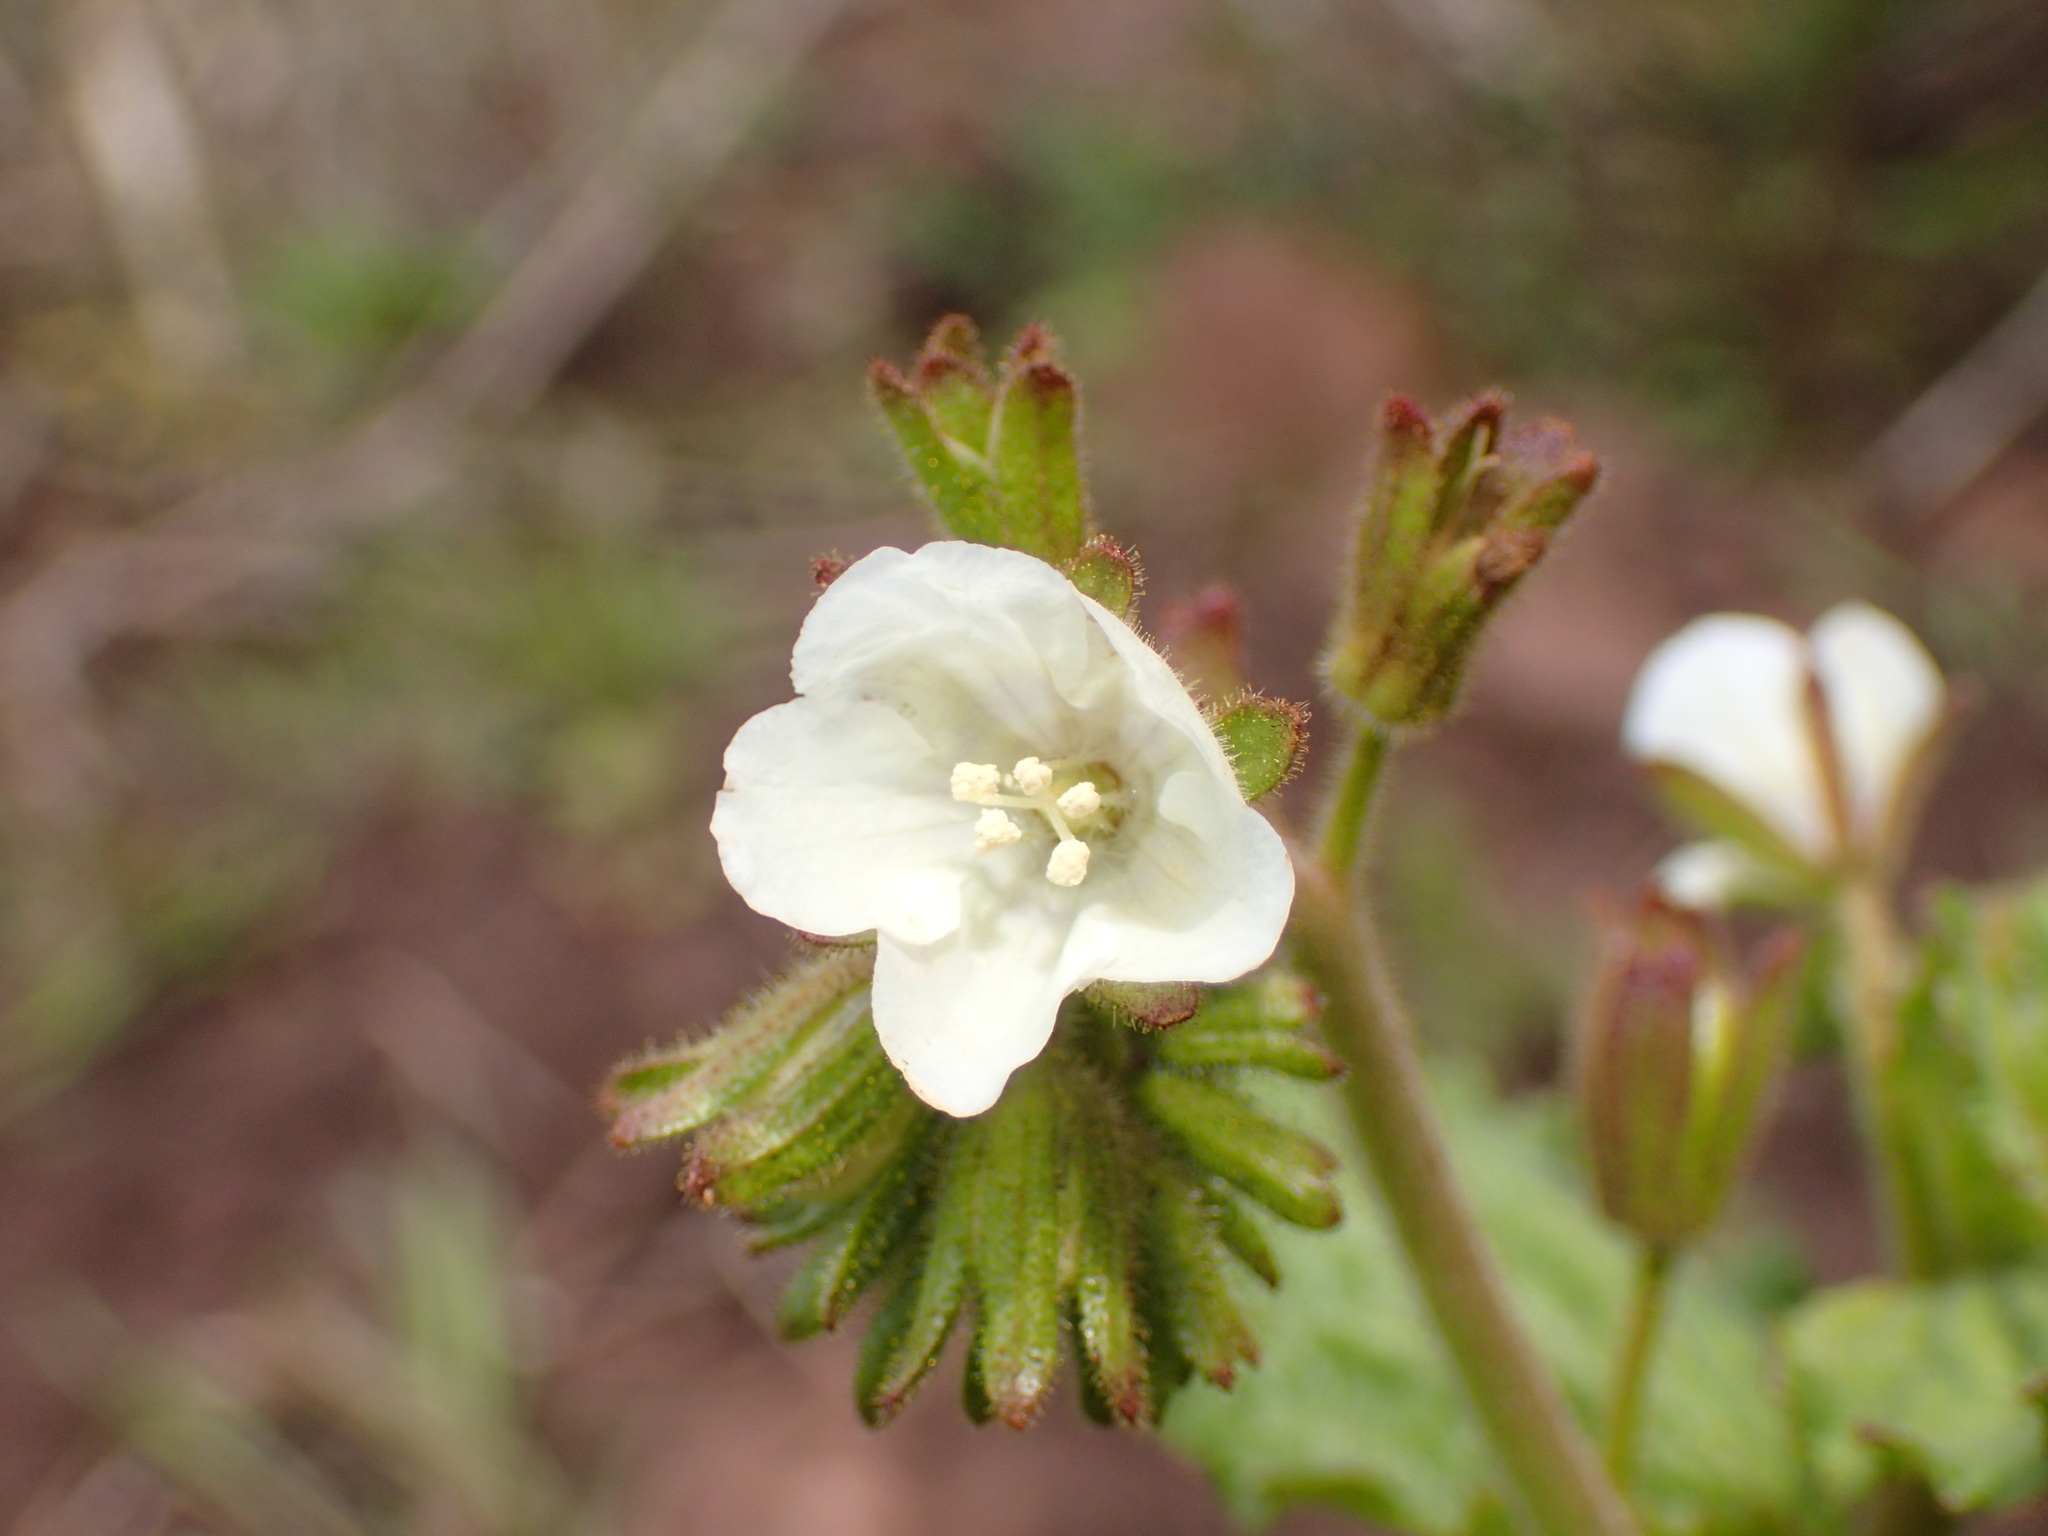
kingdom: Plantae
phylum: Tracheophyta
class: Magnoliopsida
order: Boraginales
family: Hydrophyllaceae
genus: Phacelia
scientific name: Phacelia viscida
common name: Sticky phacelia
